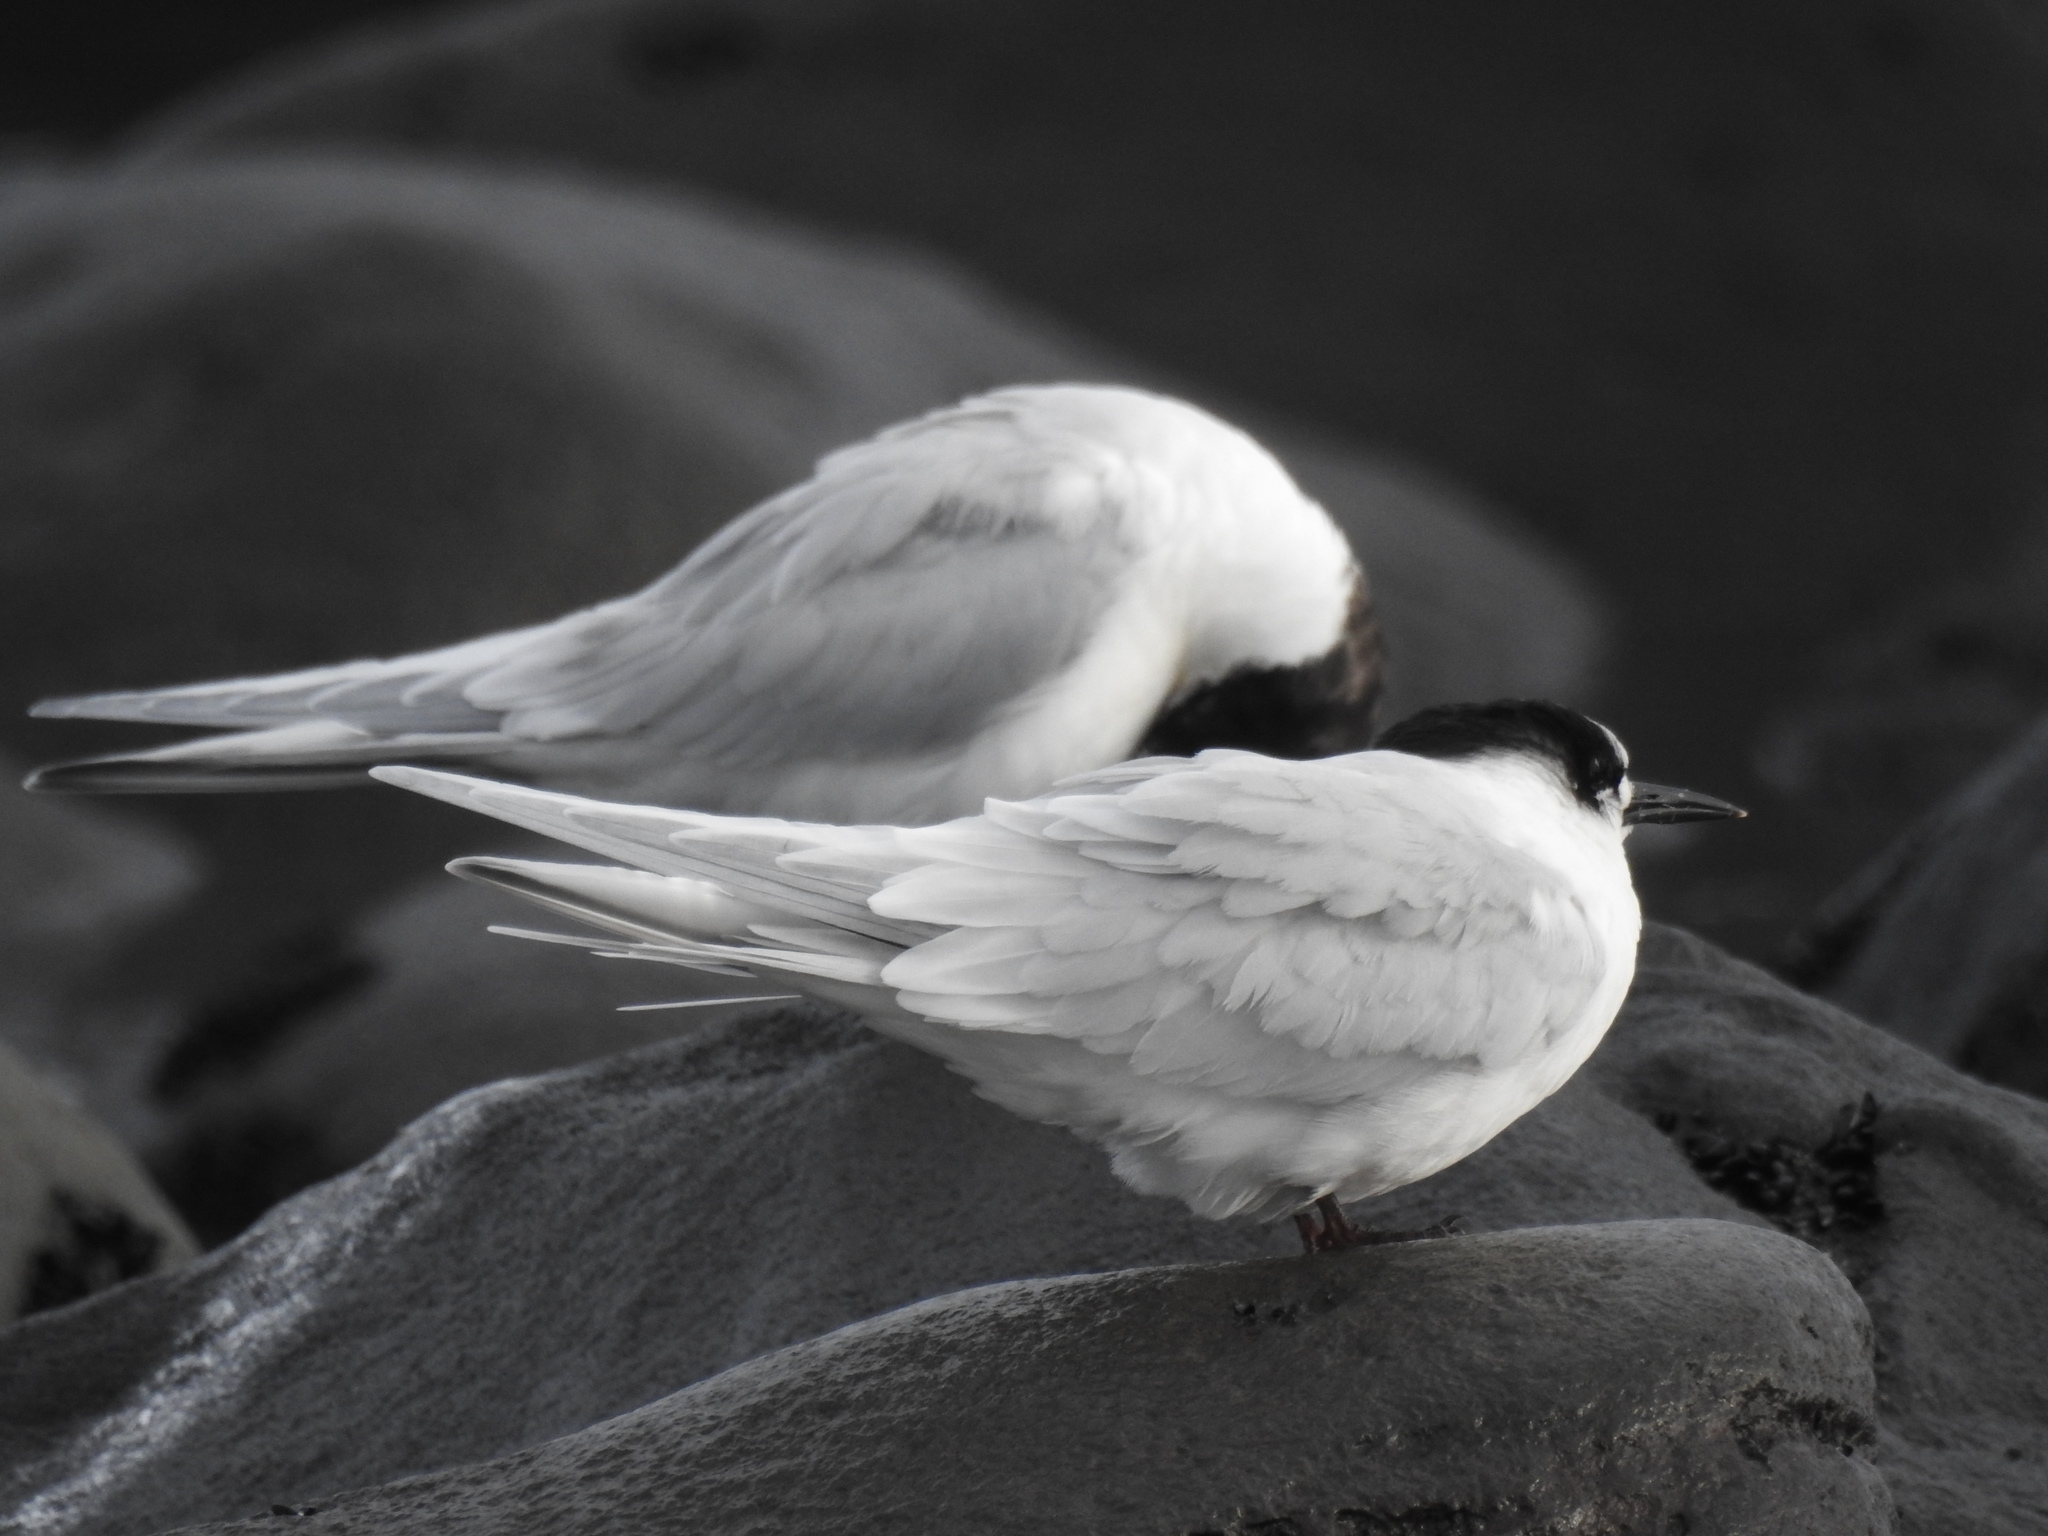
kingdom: Animalia
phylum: Chordata
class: Aves
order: Charadriiformes
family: Laridae
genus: Sterna
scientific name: Sterna striata
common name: White-fronted tern
